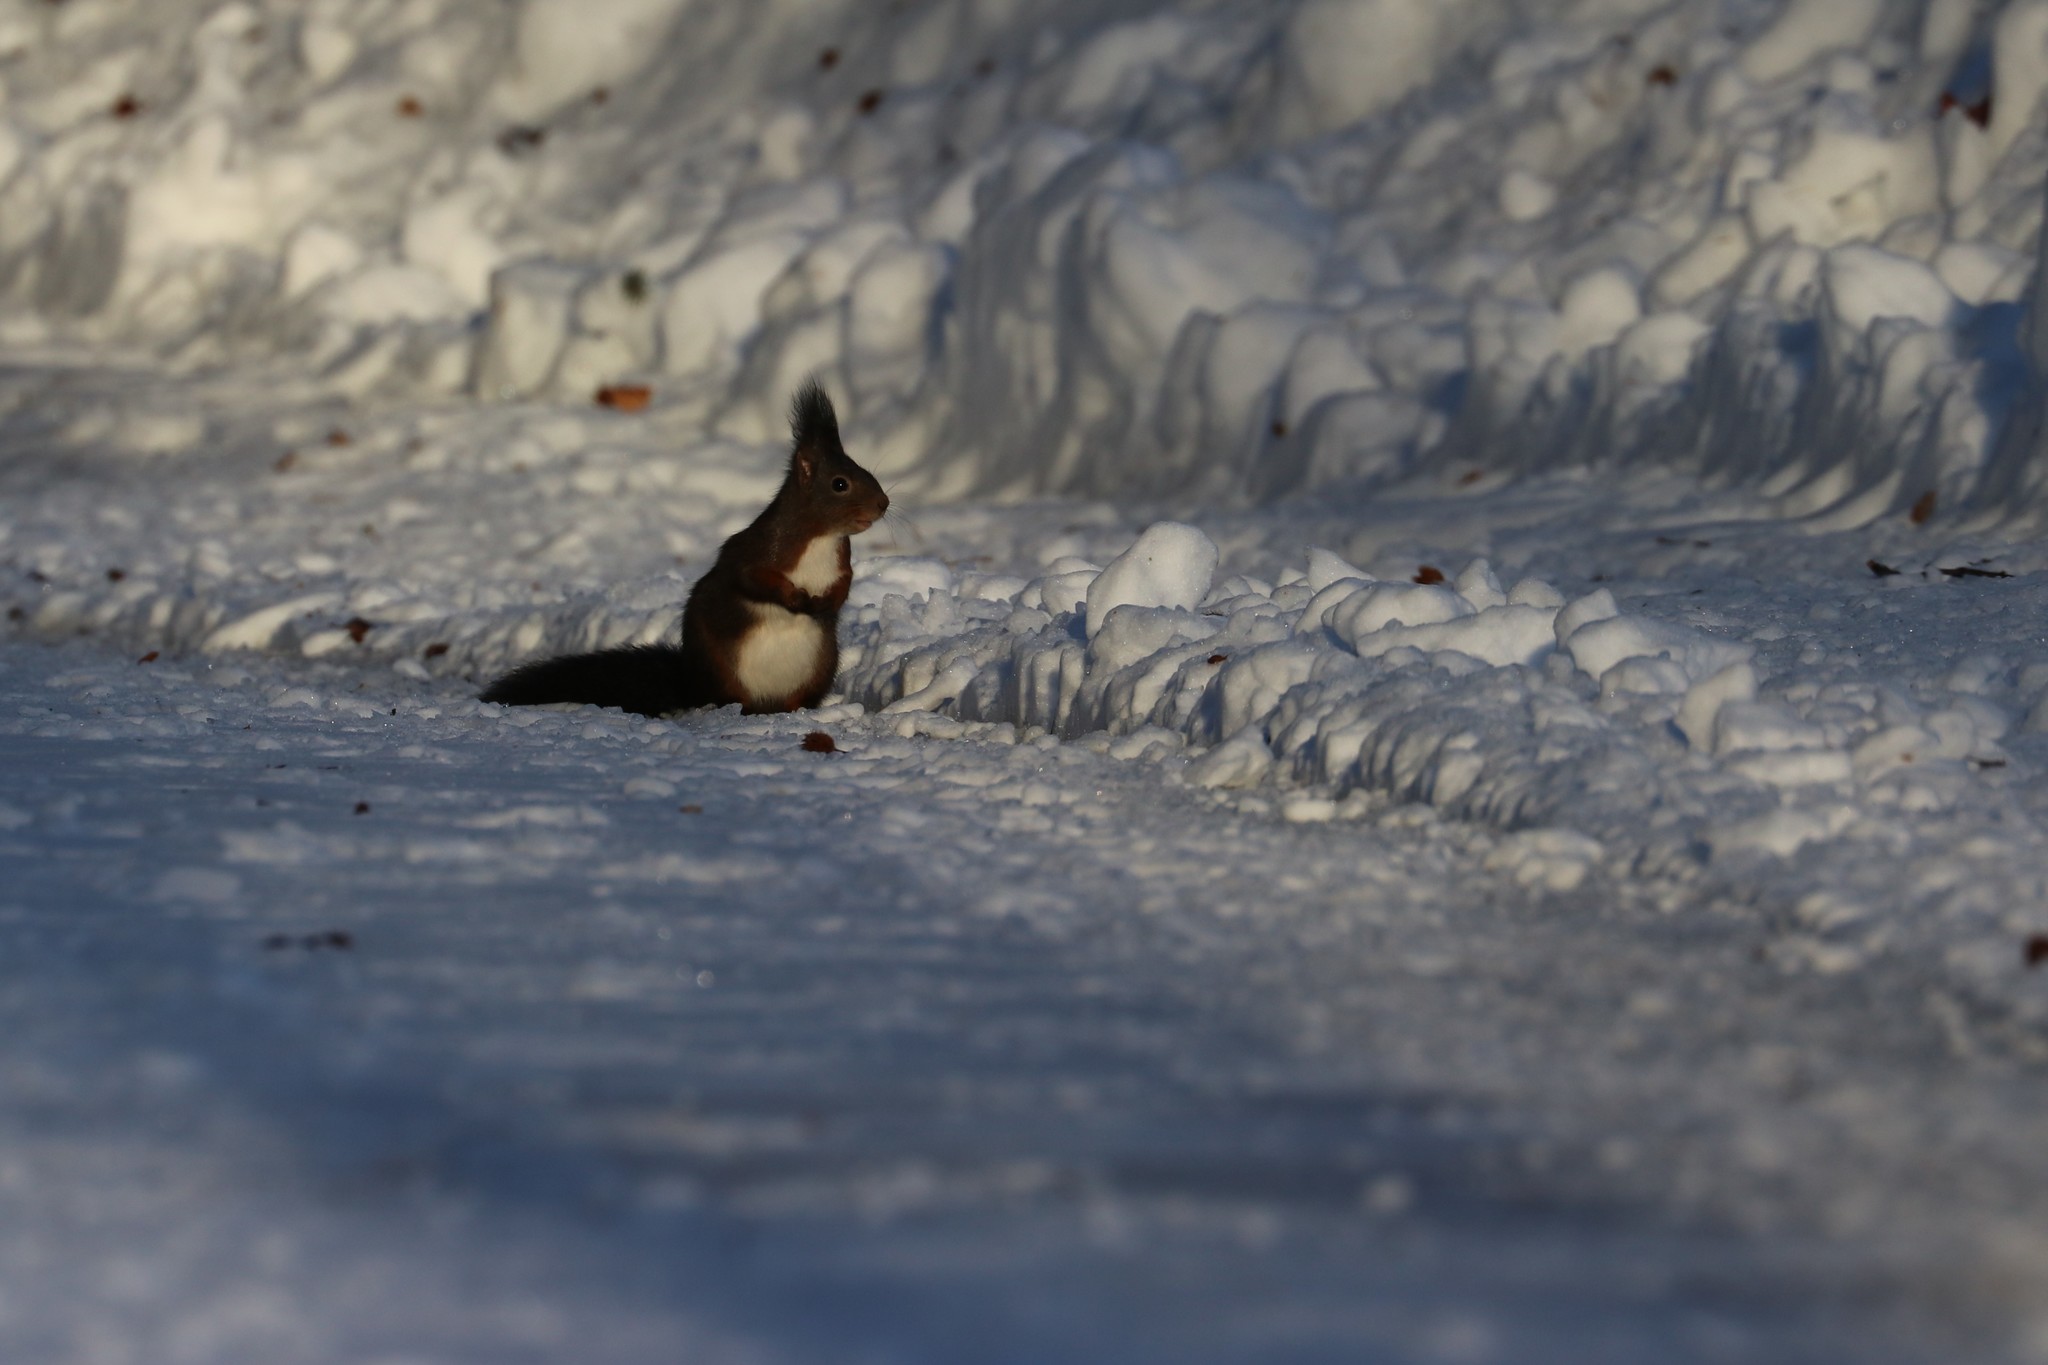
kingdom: Animalia
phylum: Chordata
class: Mammalia
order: Rodentia
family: Sciuridae
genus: Sciurus
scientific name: Sciurus vulgaris
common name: Eurasian red squirrel
